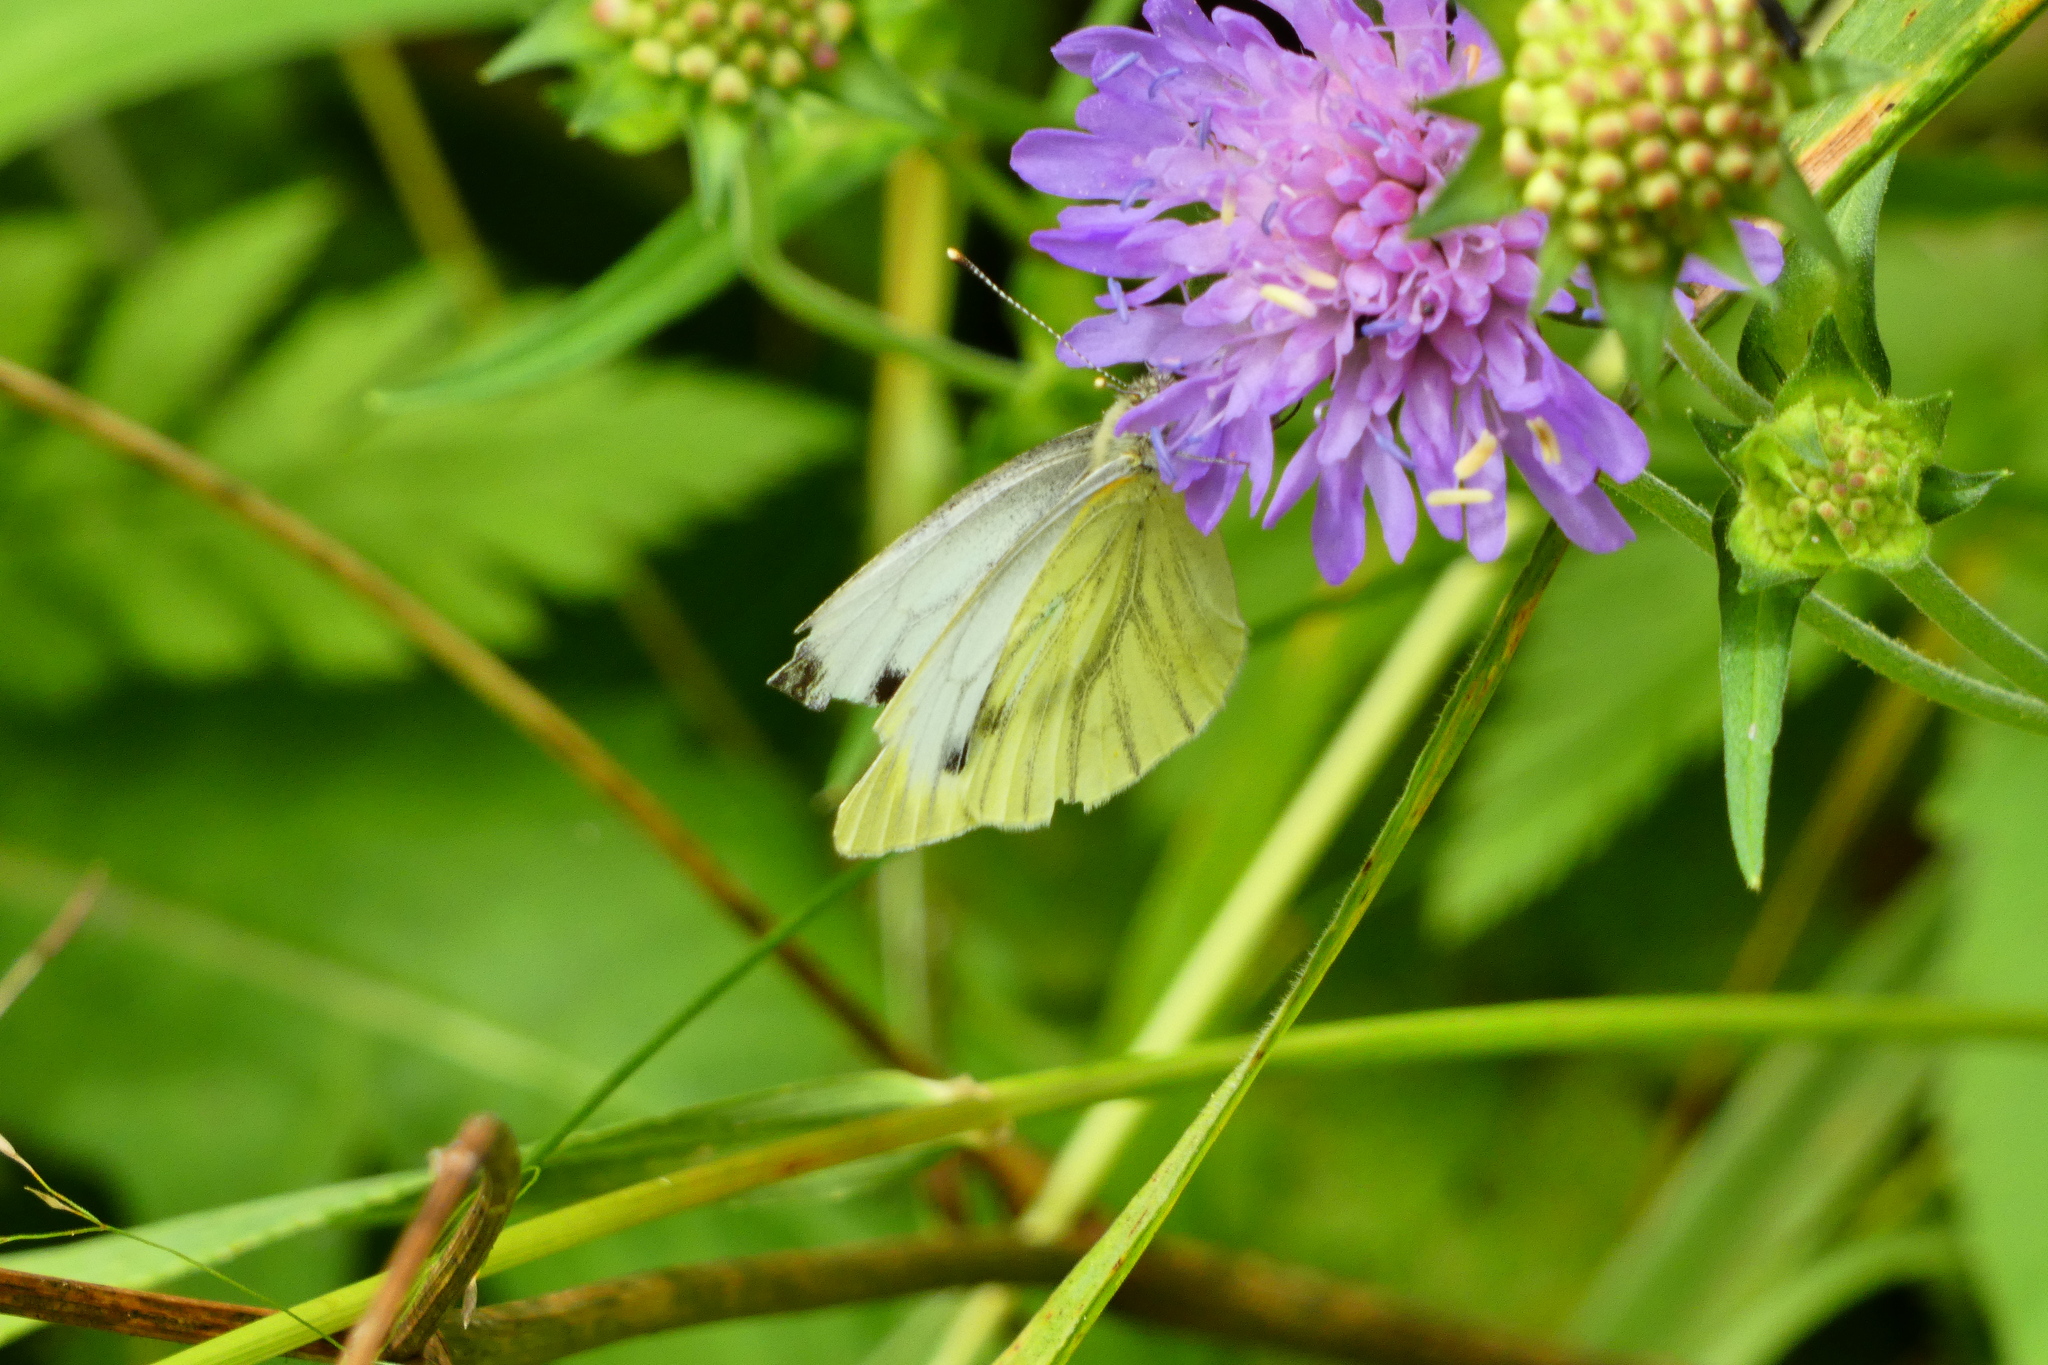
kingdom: Animalia
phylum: Arthropoda
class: Insecta
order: Lepidoptera
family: Pieridae
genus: Pieris
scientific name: Pieris napi
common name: Green-veined white
